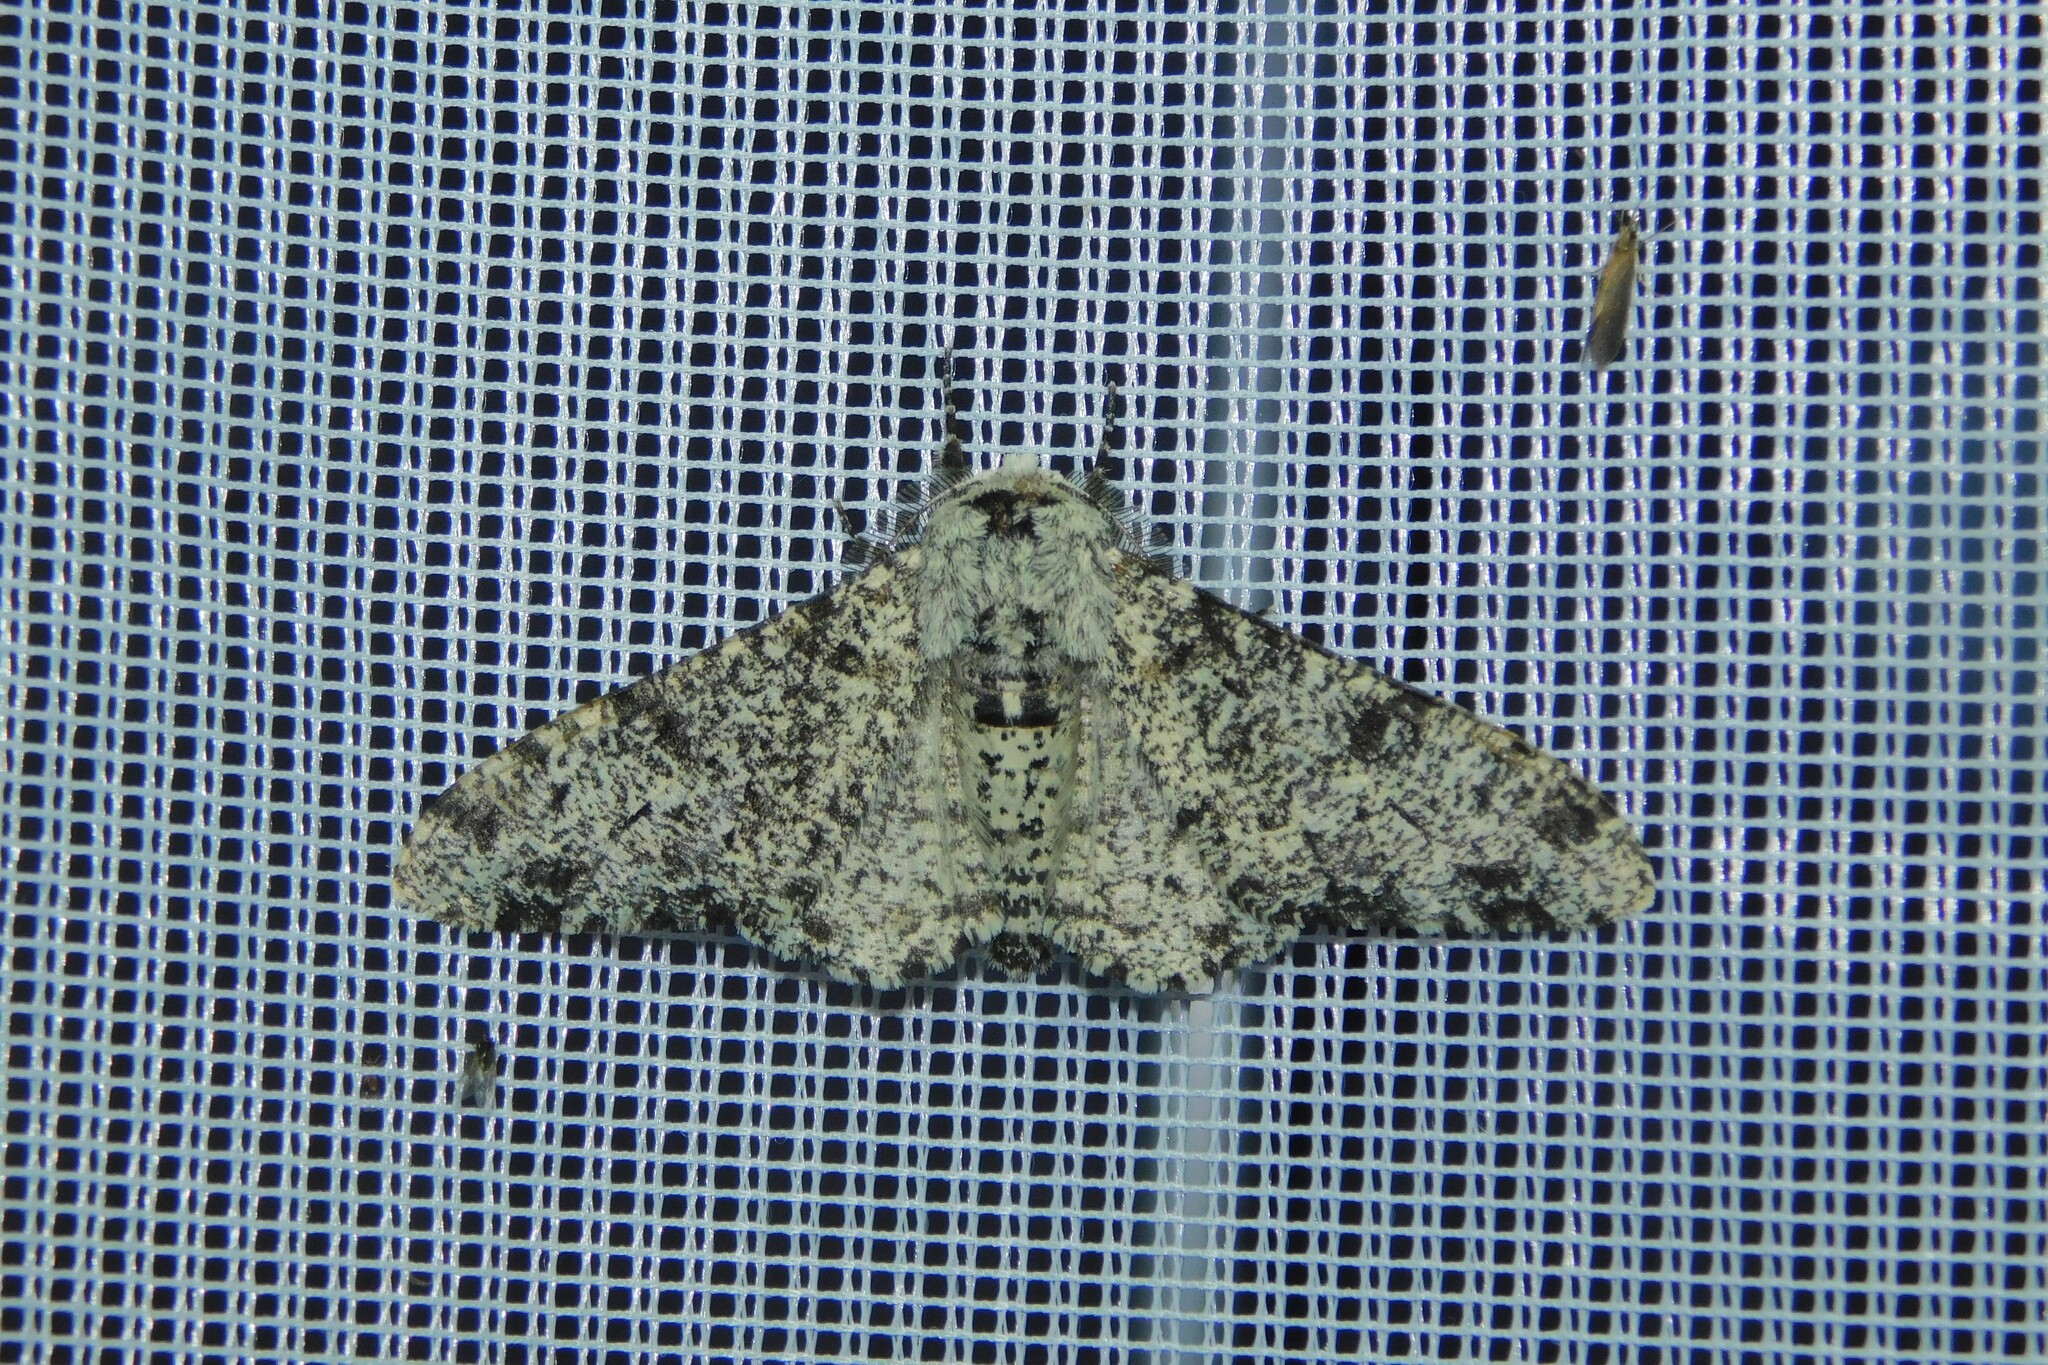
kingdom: Animalia
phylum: Arthropoda
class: Insecta
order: Lepidoptera
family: Geometridae
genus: Biston
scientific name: Biston betularia
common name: Peppered moth
